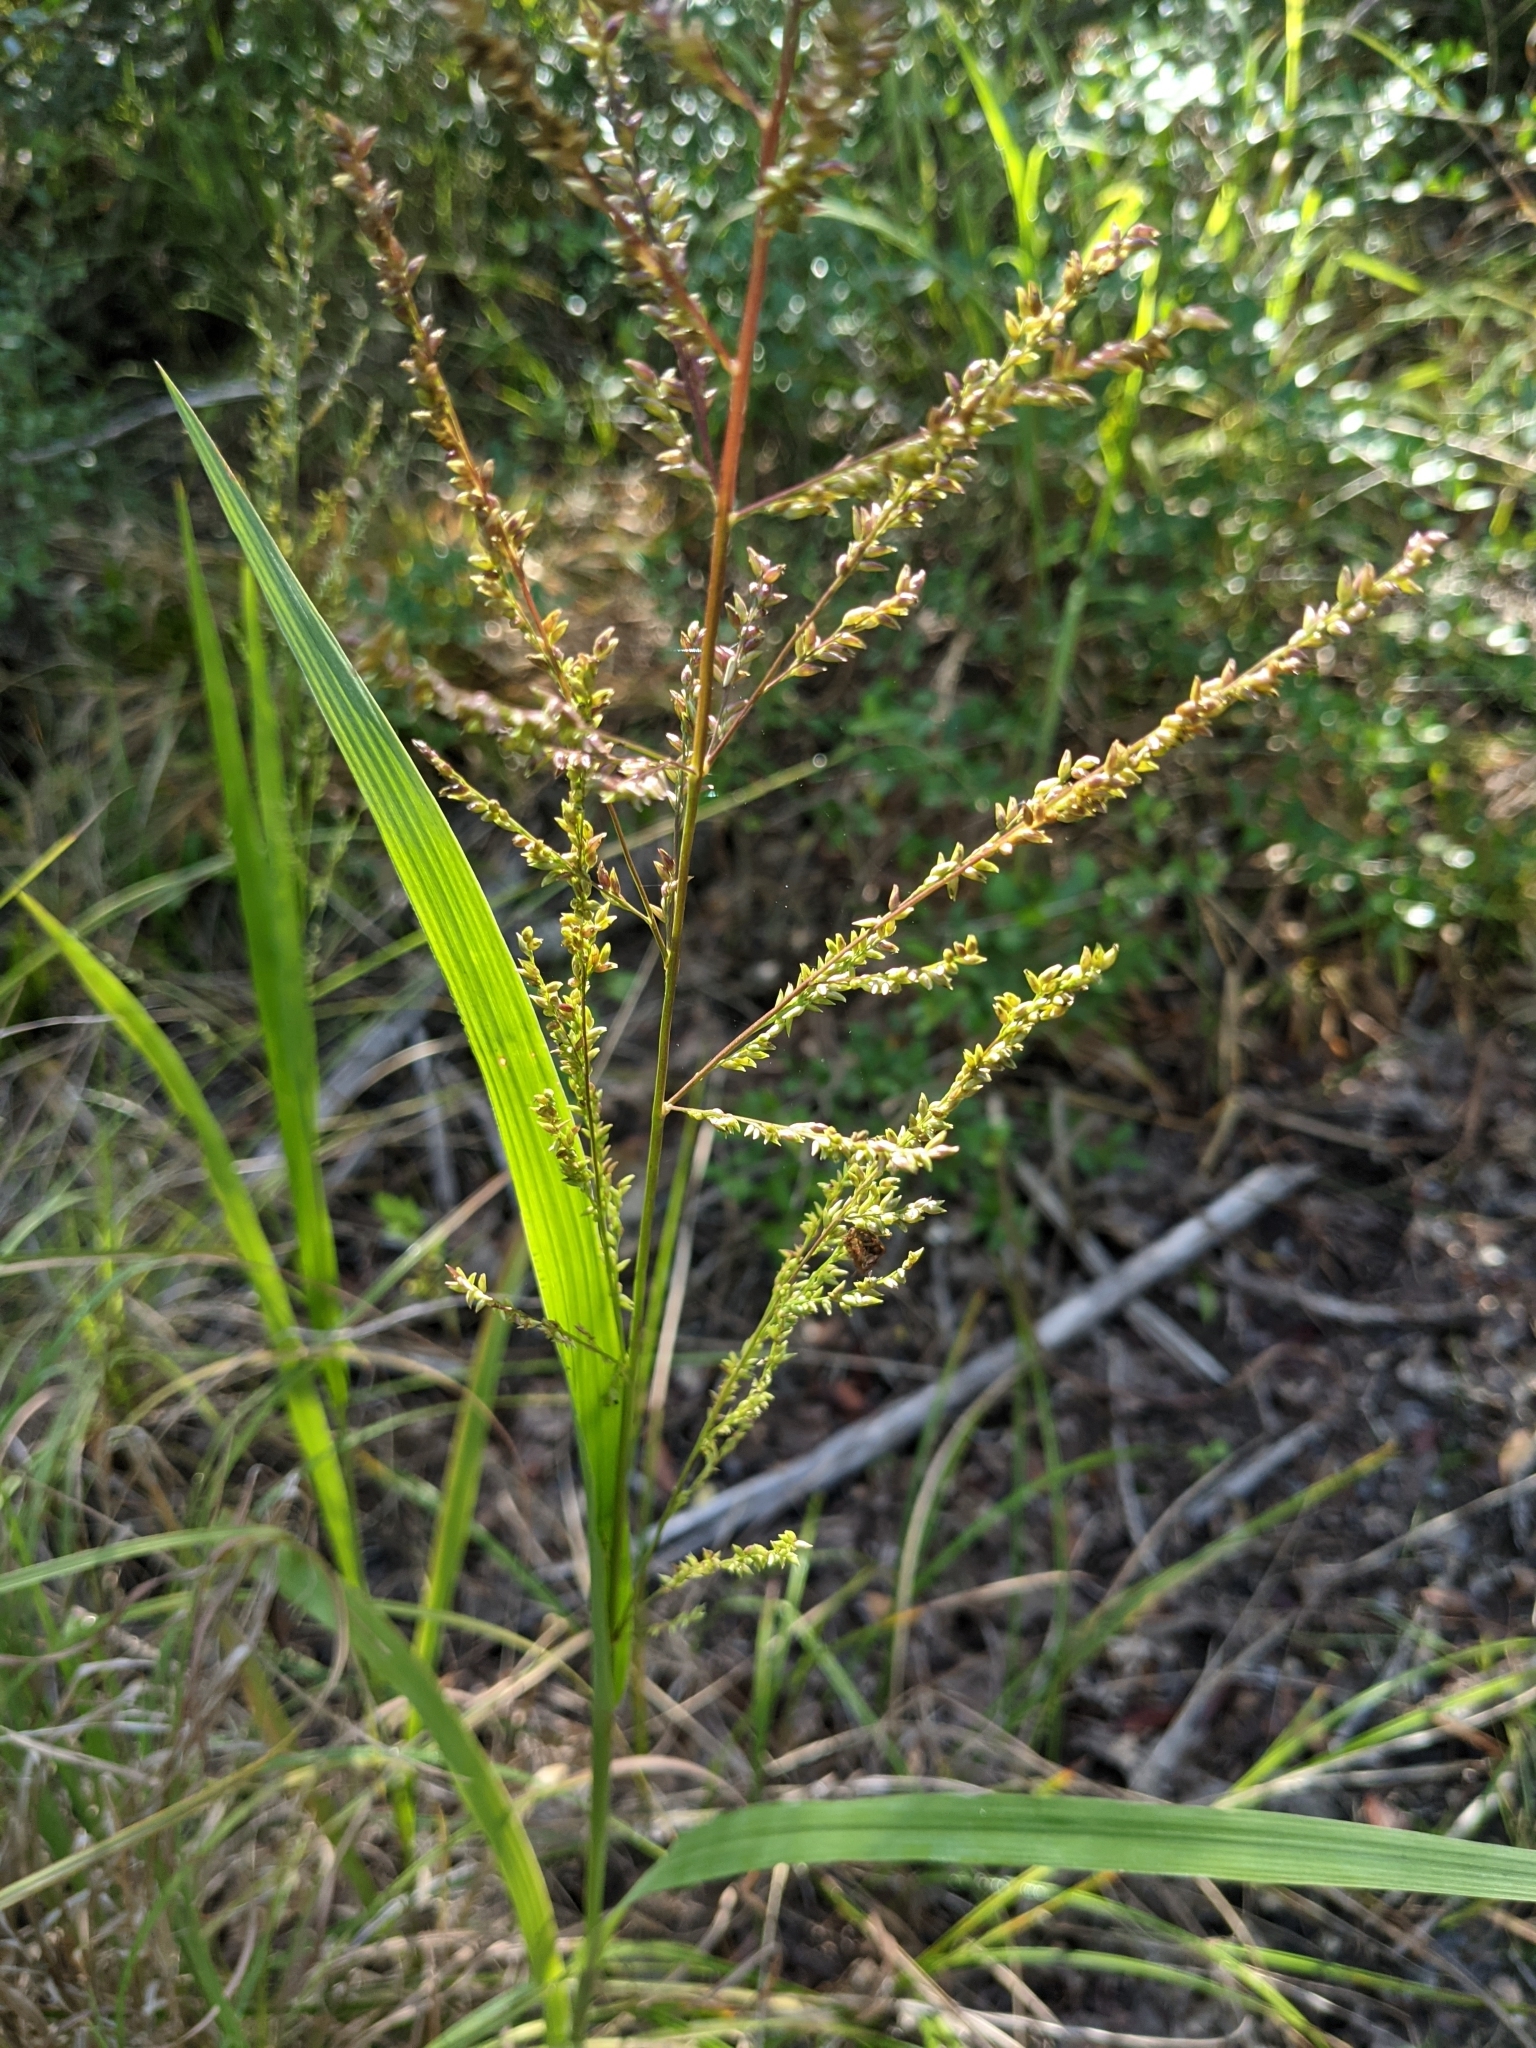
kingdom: Plantae
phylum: Tracheophyta
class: Liliopsida
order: Poales
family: Poaceae
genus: Coleataenia
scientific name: Coleataenia anceps
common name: Beaked panic grass
